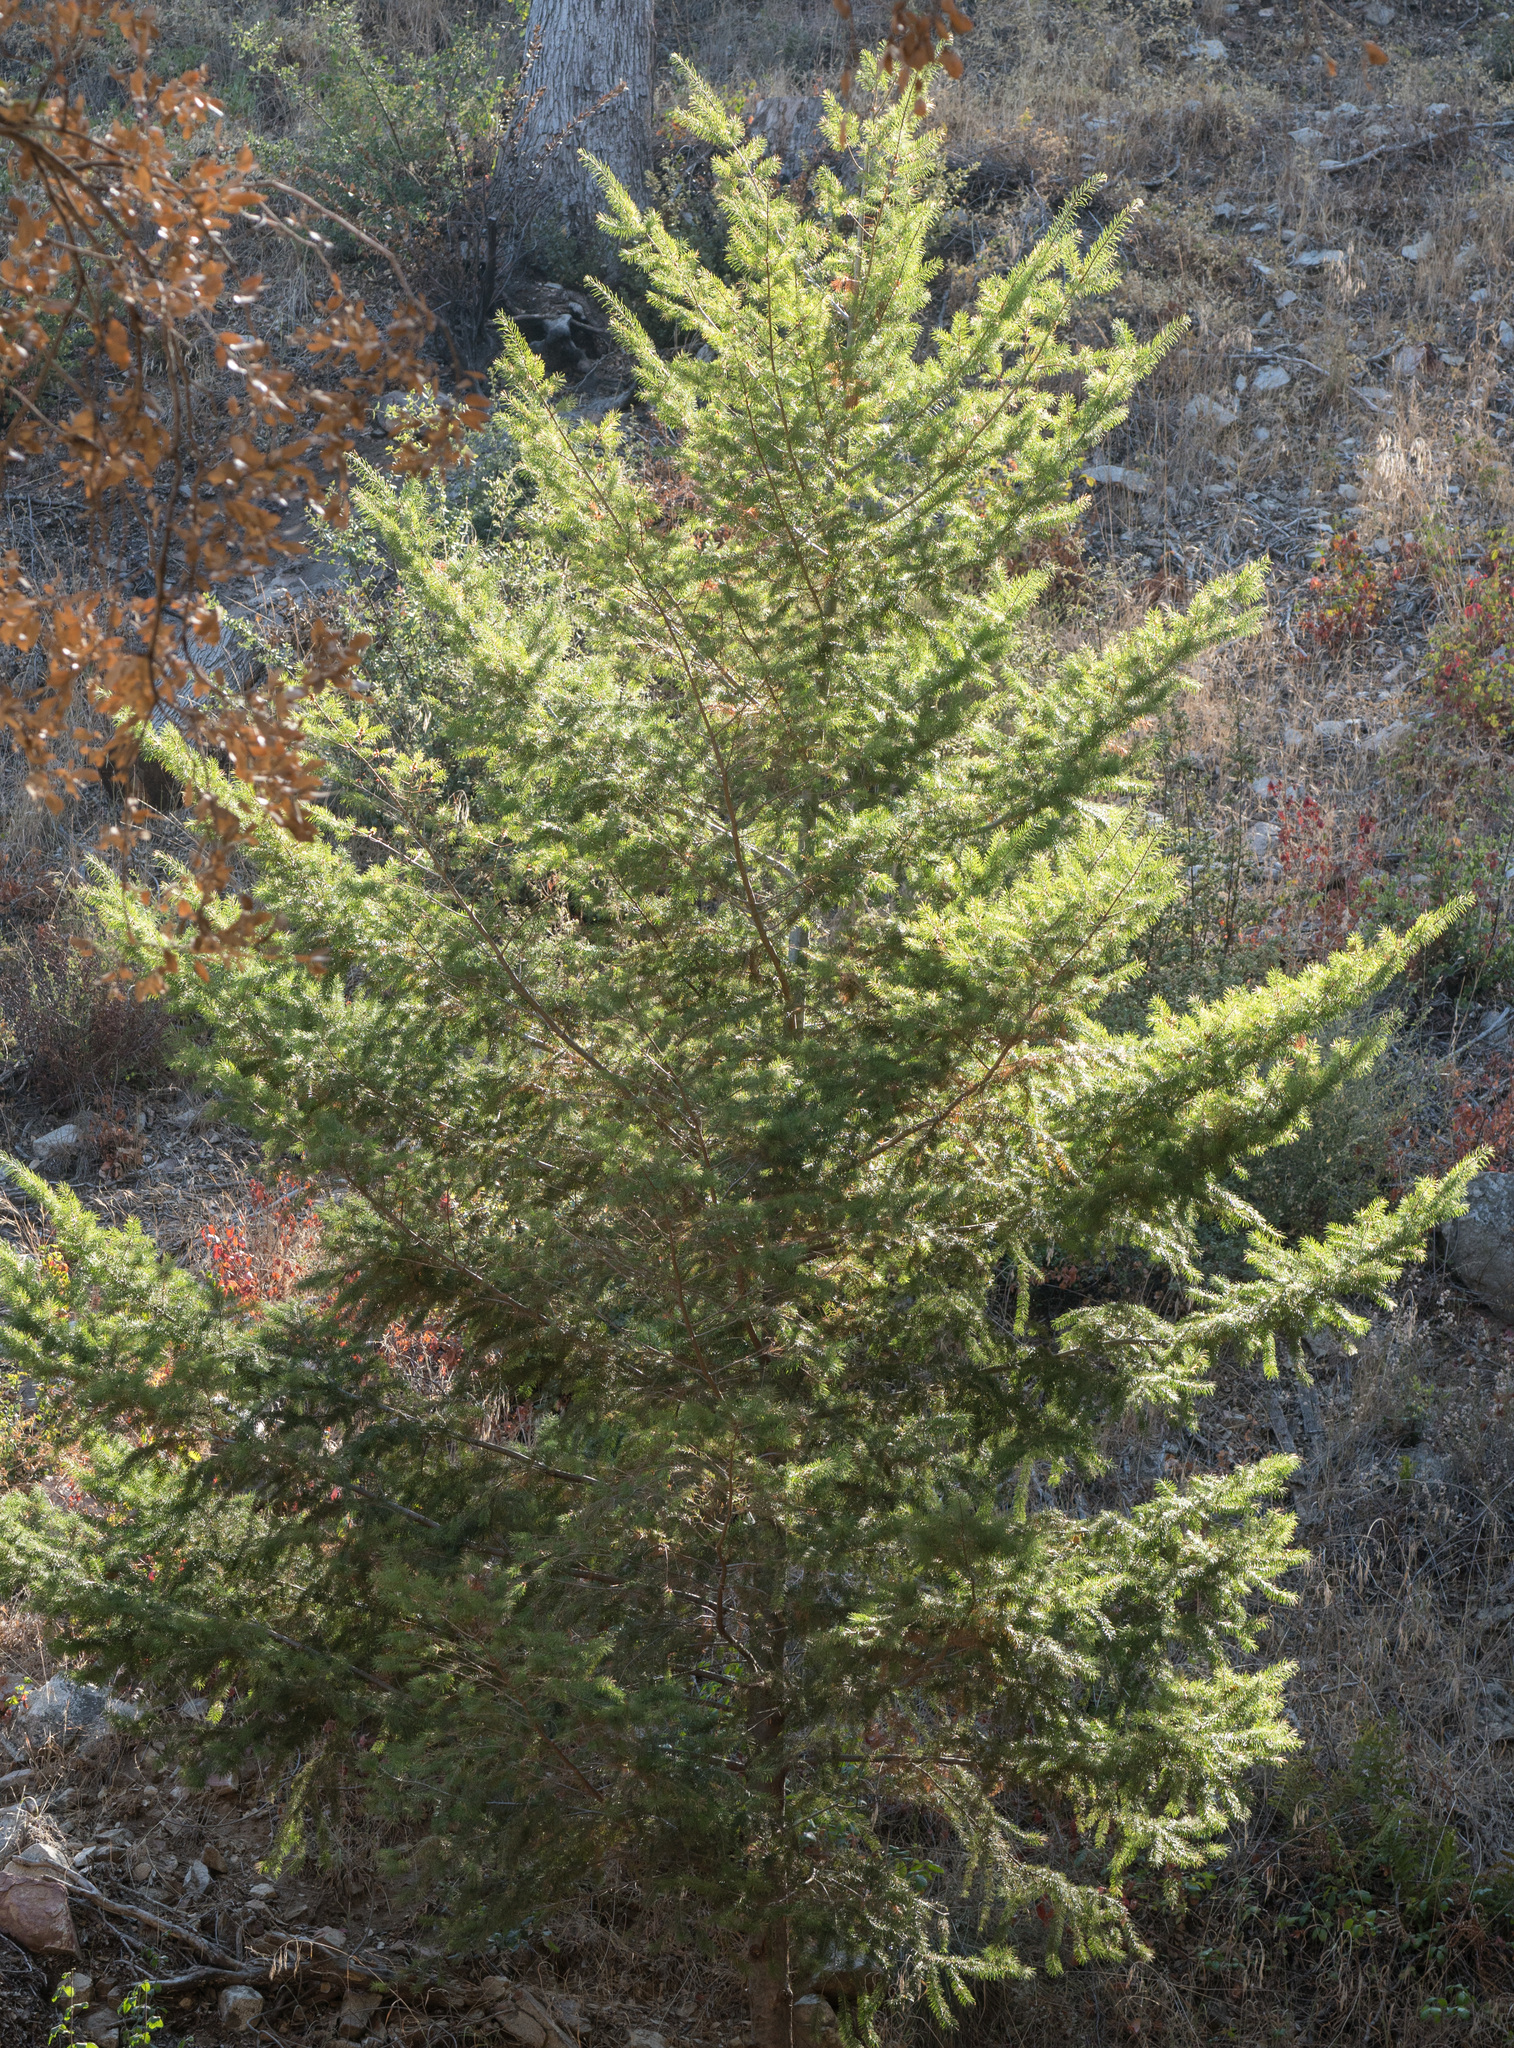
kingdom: Plantae
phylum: Tracheophyta
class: Pinopsida
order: Pinales
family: Pinaceae
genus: Pseudotsuga
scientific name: Pseudotsuga macrocarpa
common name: Big-cone douglas-fir
